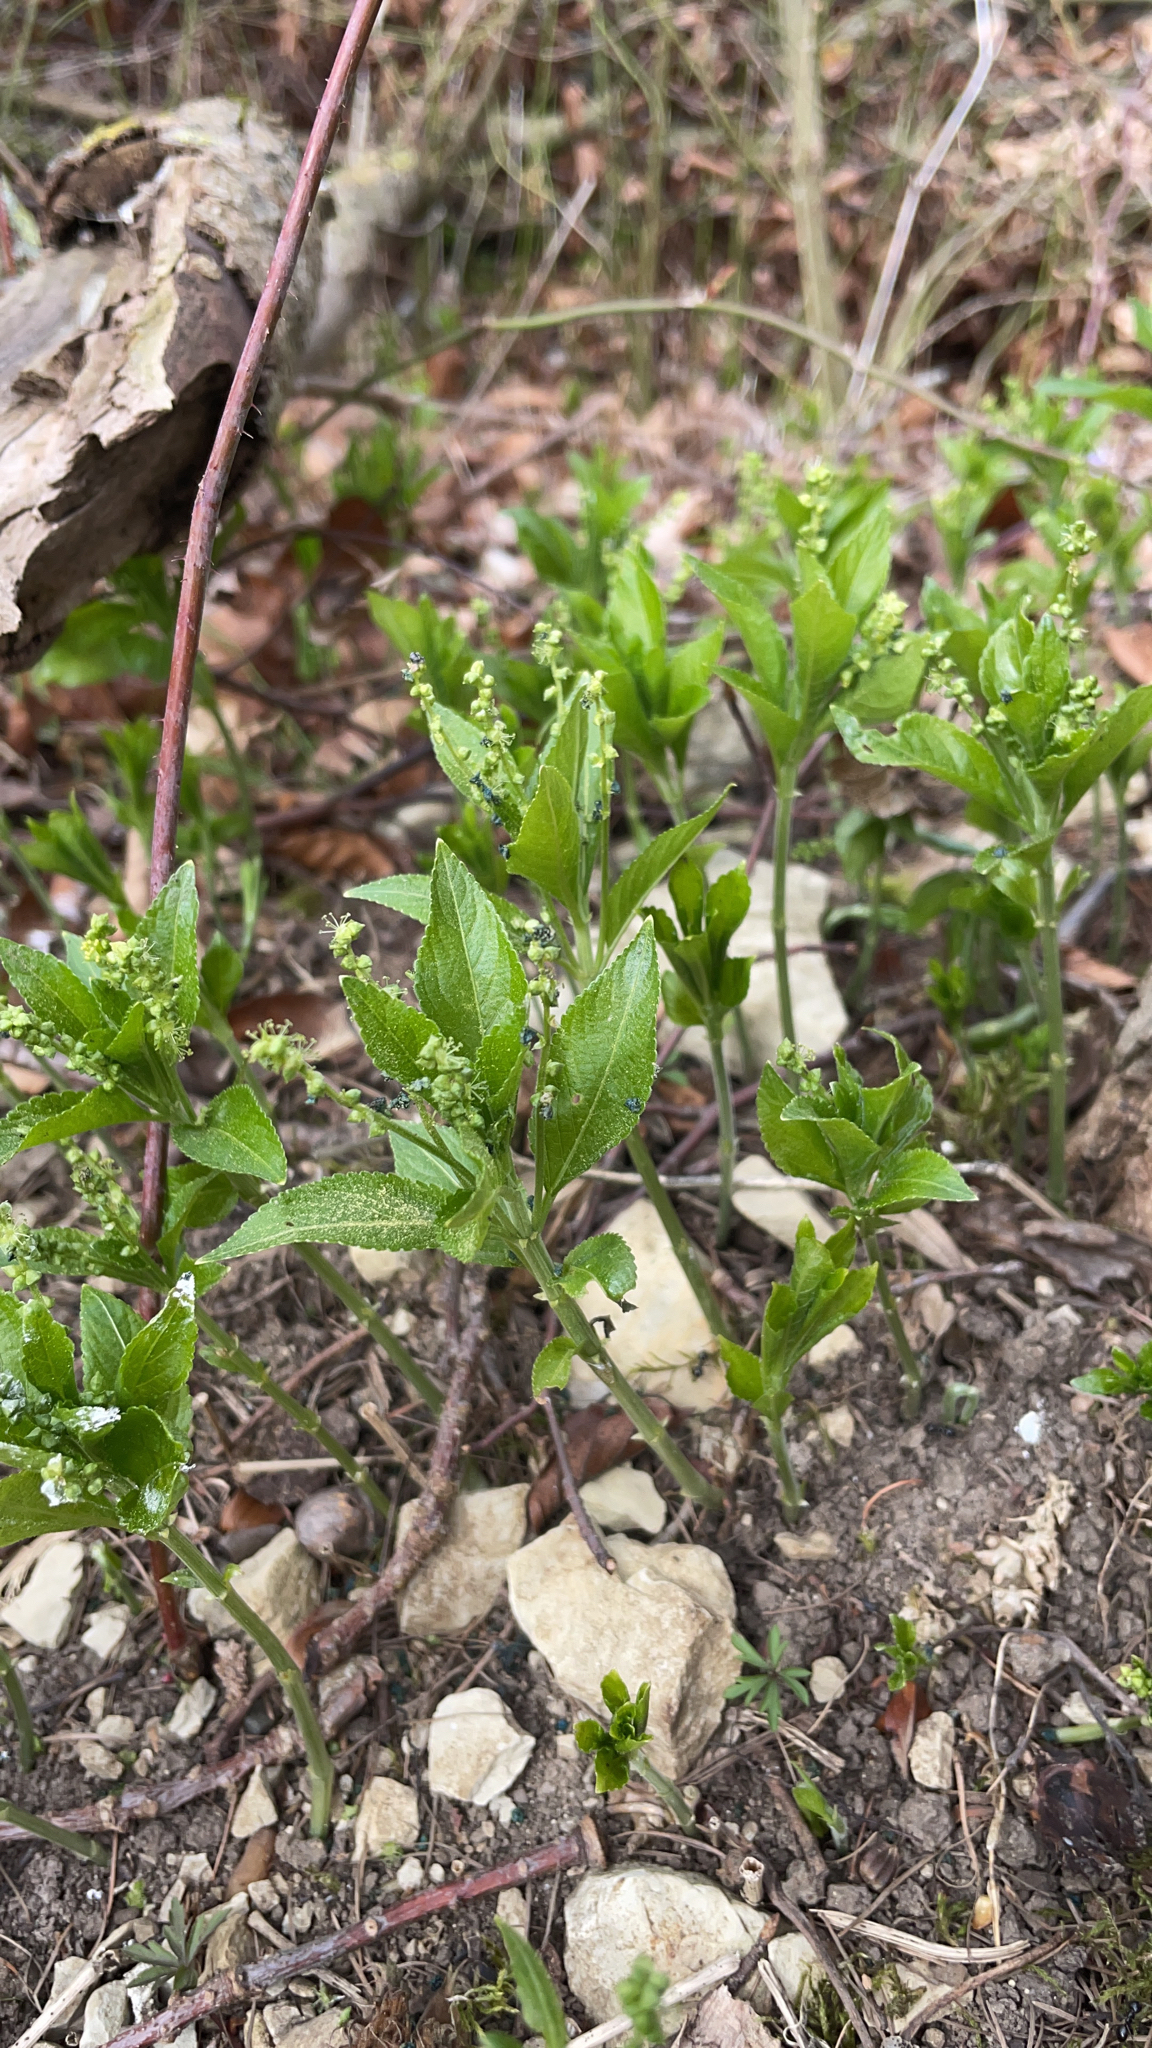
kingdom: Plantae
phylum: Tracheophyta
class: Magnoliopsida
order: Malpighiales
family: Euphorbiaceae
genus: Mercurialis
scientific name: Mercurialis perennis
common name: Dog mercury
